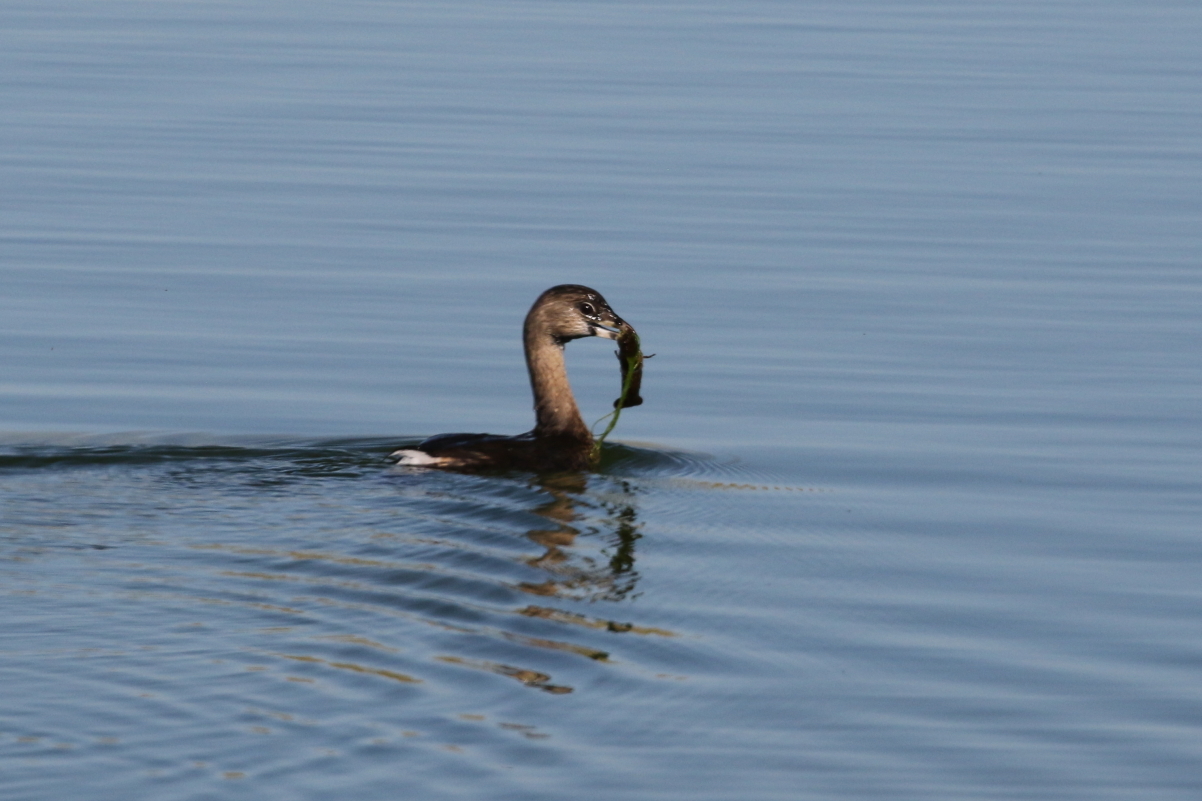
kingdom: Animalia
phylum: Chordata
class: Aves
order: Podicipediformes
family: Podicipedidae
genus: Podilymbus
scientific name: Podilymbus podiceps
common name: Pied-billed grebe
